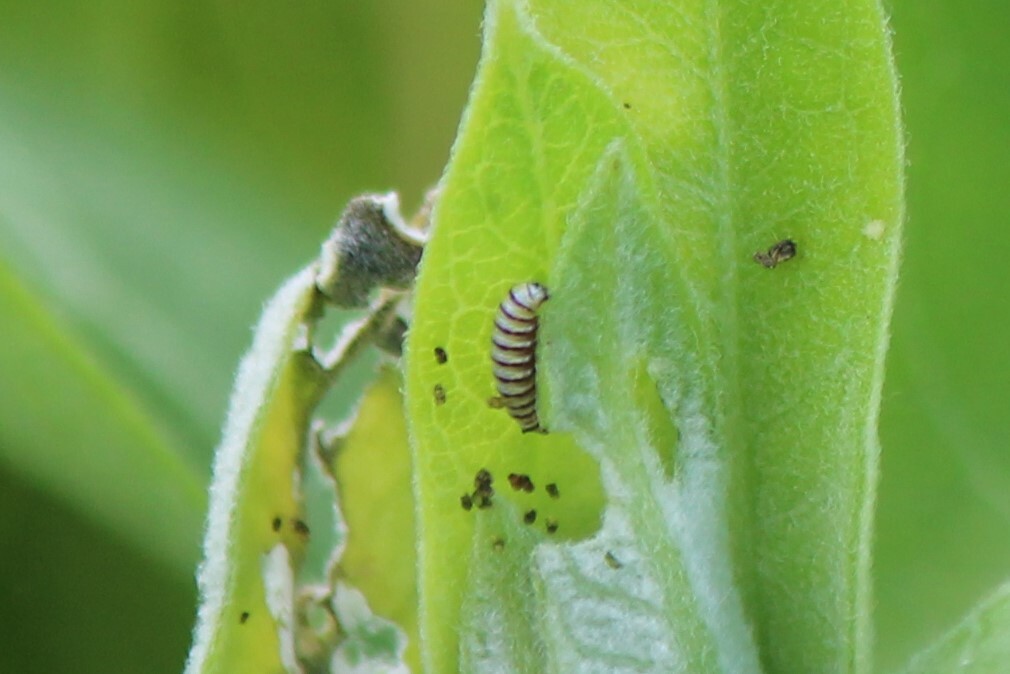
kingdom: Animalia
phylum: Arthropoda
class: Insecta
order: Lepidoptera
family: Nymphalidae
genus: Danaus
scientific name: Danaus plexippus
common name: Monarch
